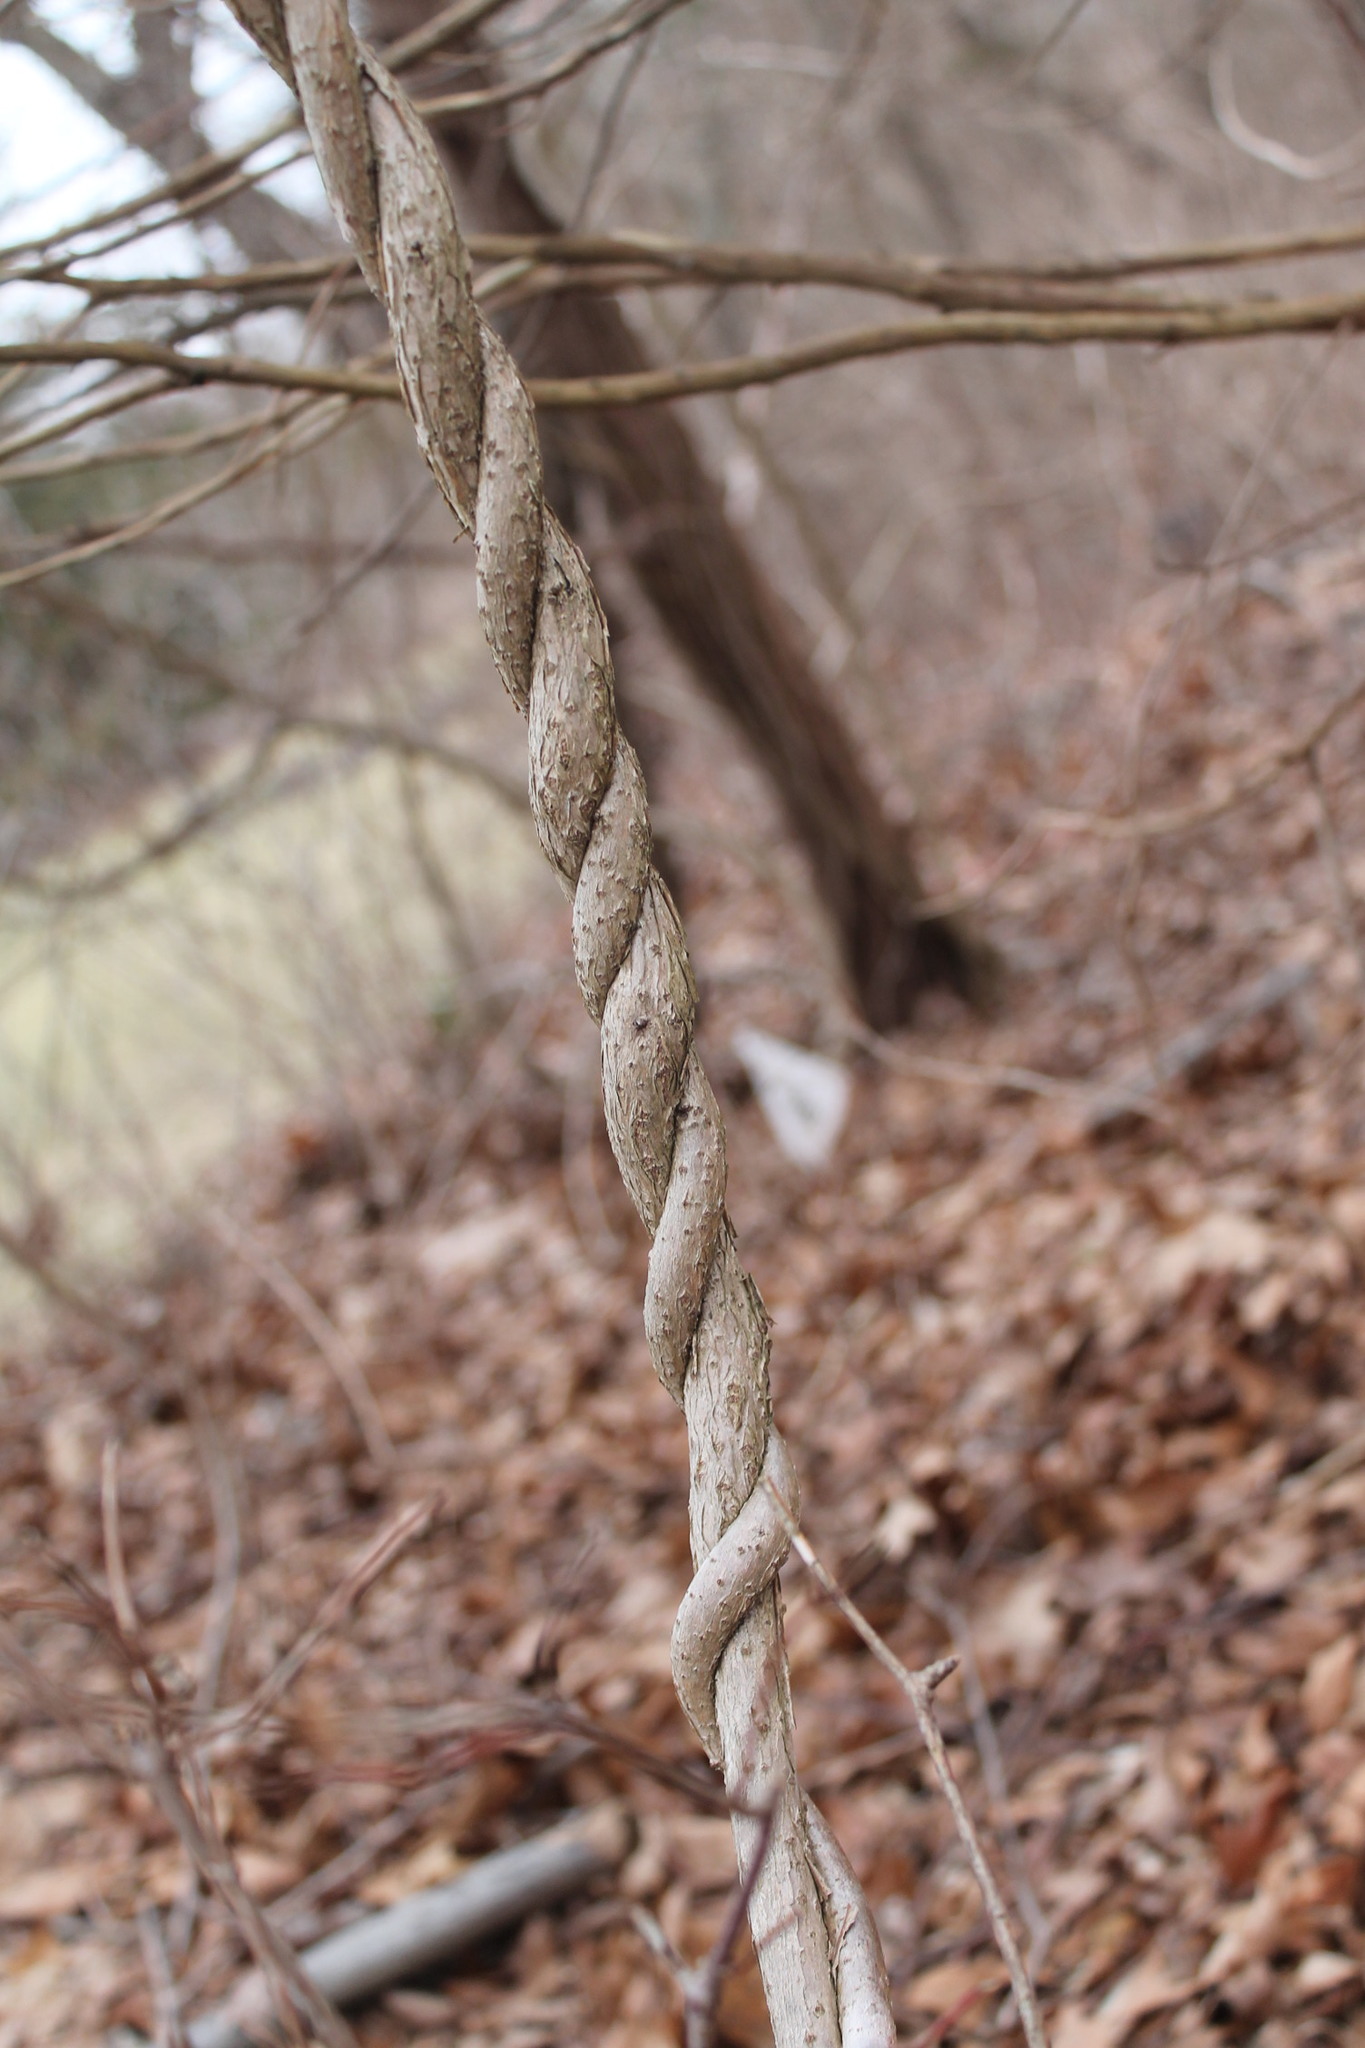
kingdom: Plantae
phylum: Tracheophyta
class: Magnoliopsida
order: Celastrales
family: Celastraceae
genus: Celastrus
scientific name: Celastrus orbiculatus
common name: Oriental bittersweet
